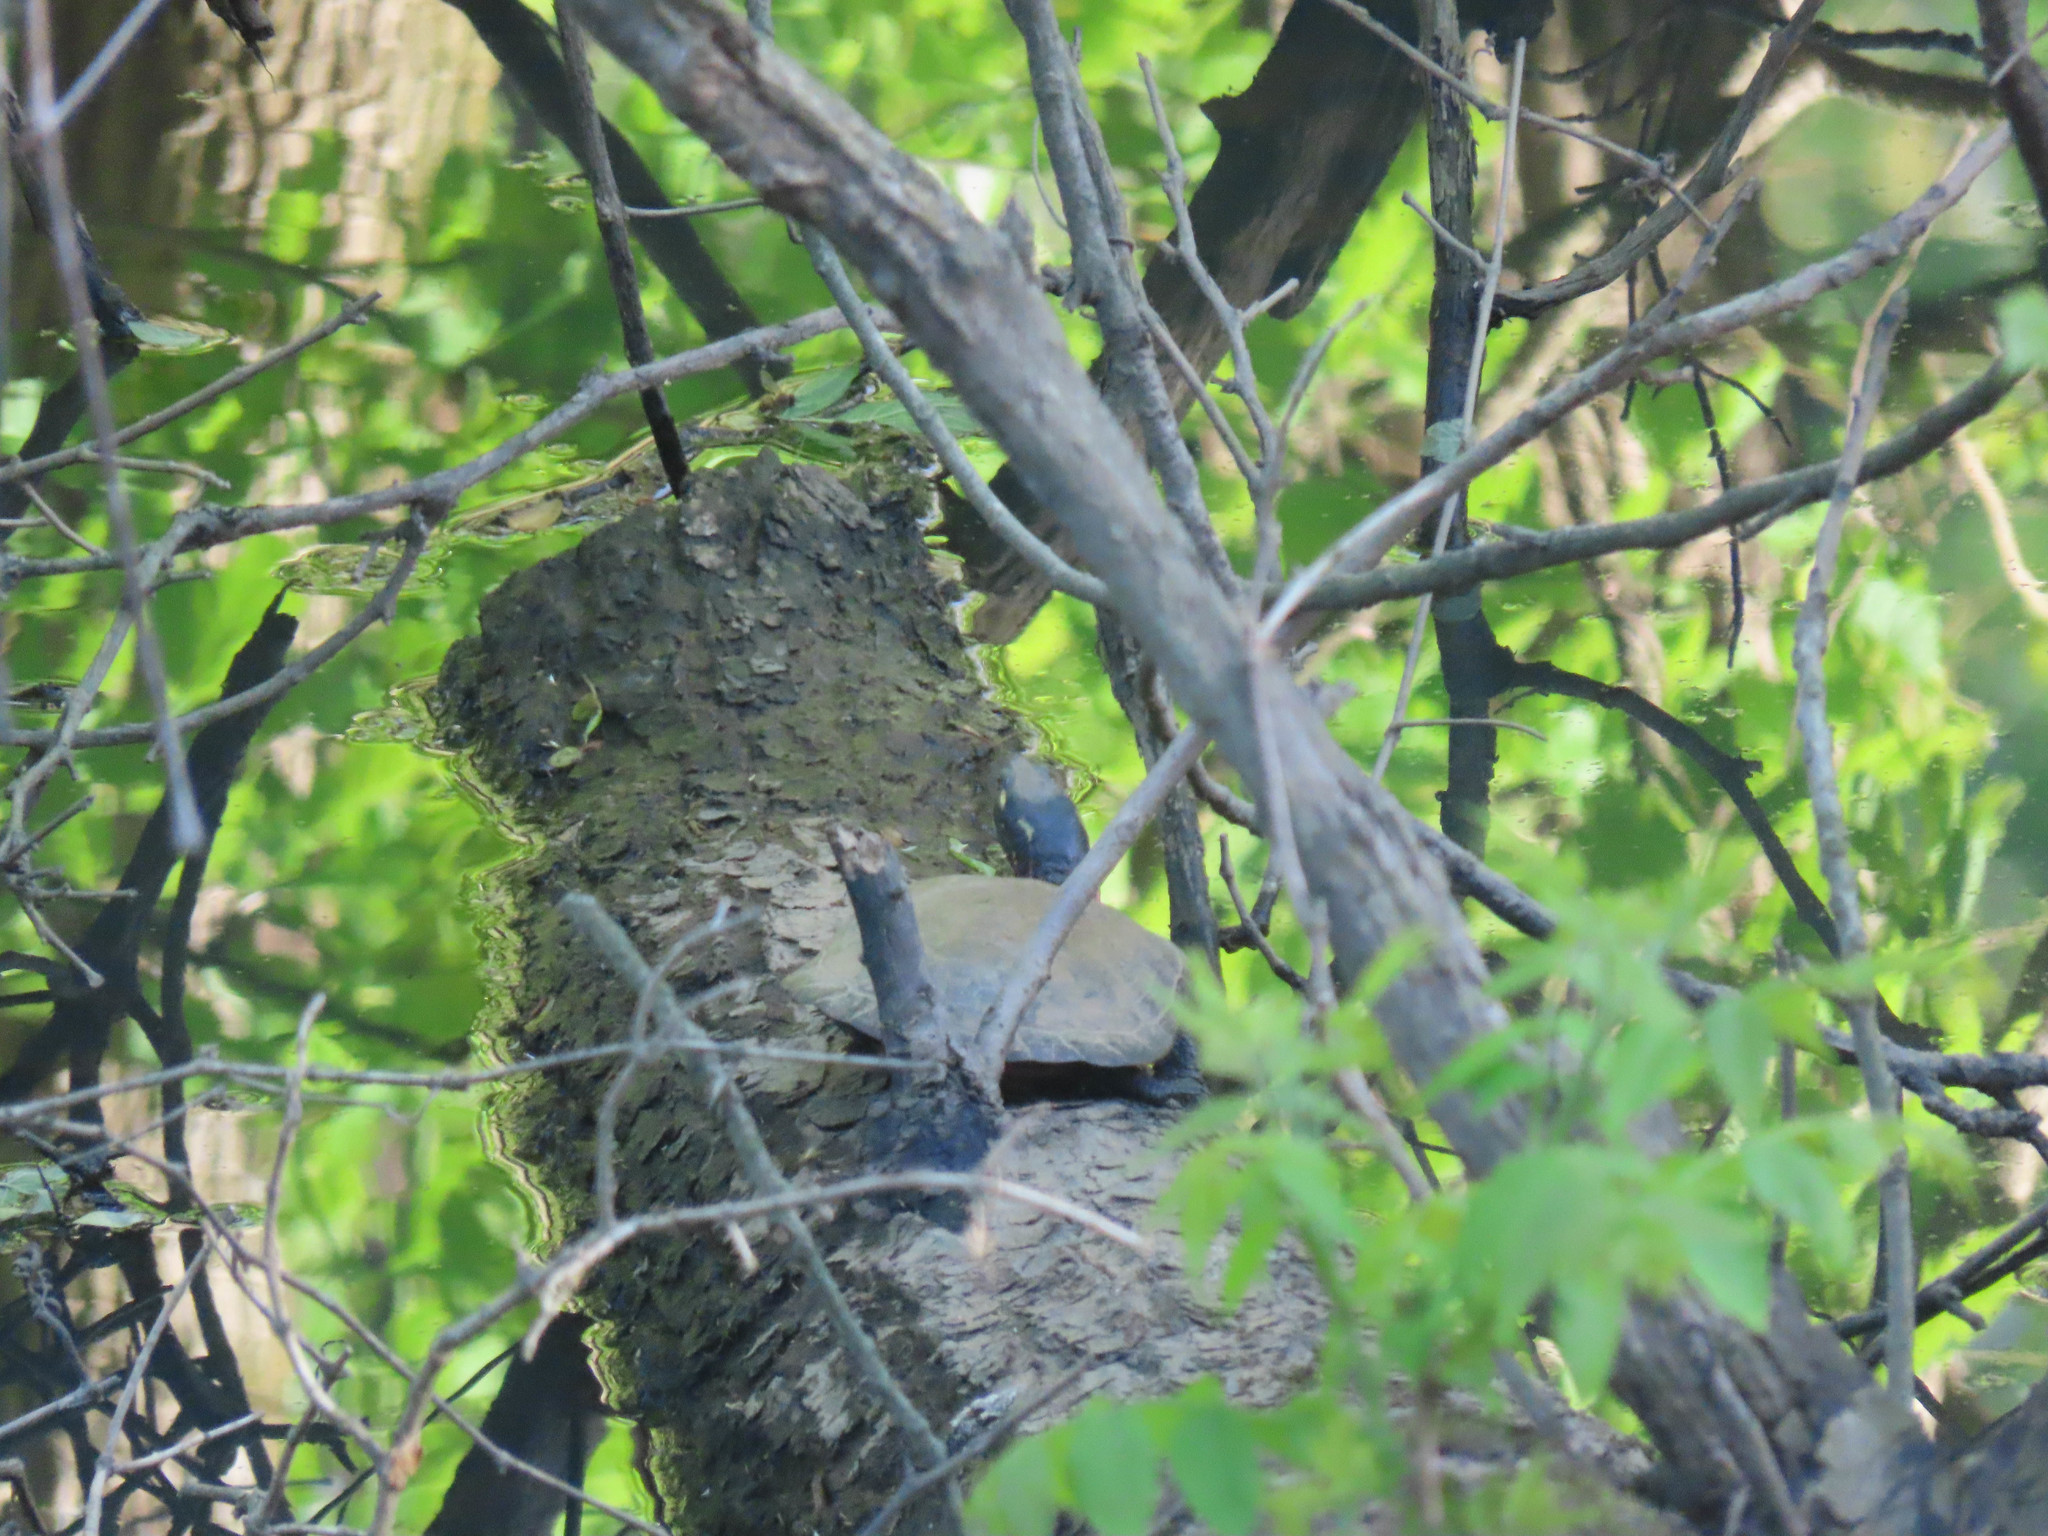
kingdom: Animalia
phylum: Chordata
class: Testudines
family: Emydidae
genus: Chrysemys
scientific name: Chrysemys picta
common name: Painted turtle
